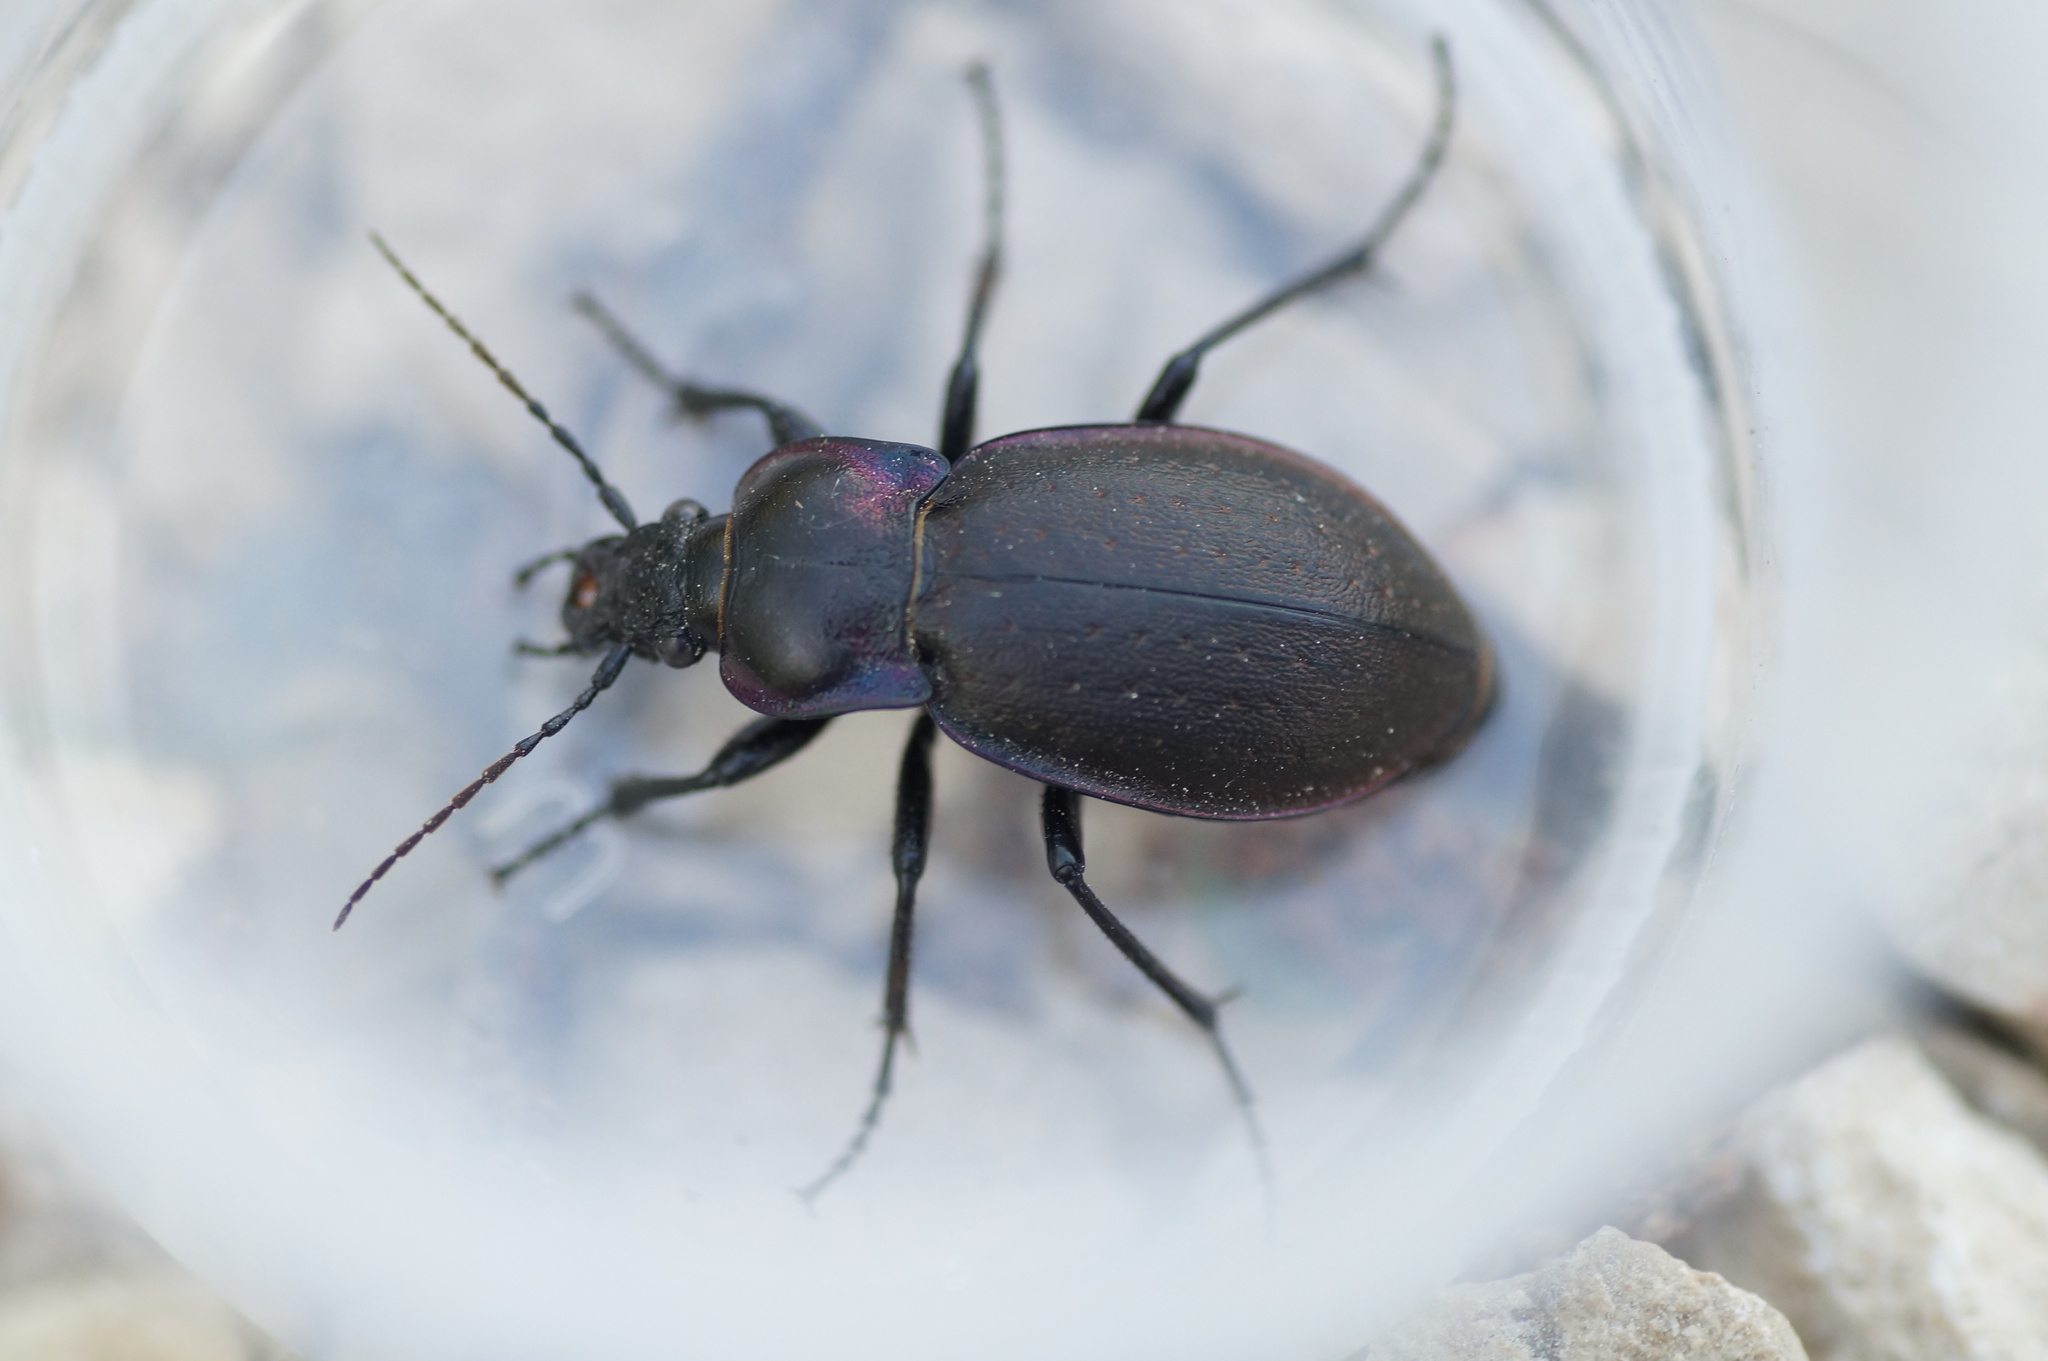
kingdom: Animalia
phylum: Arthropoda
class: Insecta
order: Coleoptera
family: Carabidae
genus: Carabus
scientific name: Carabus nemoralis
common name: European ground beetle
